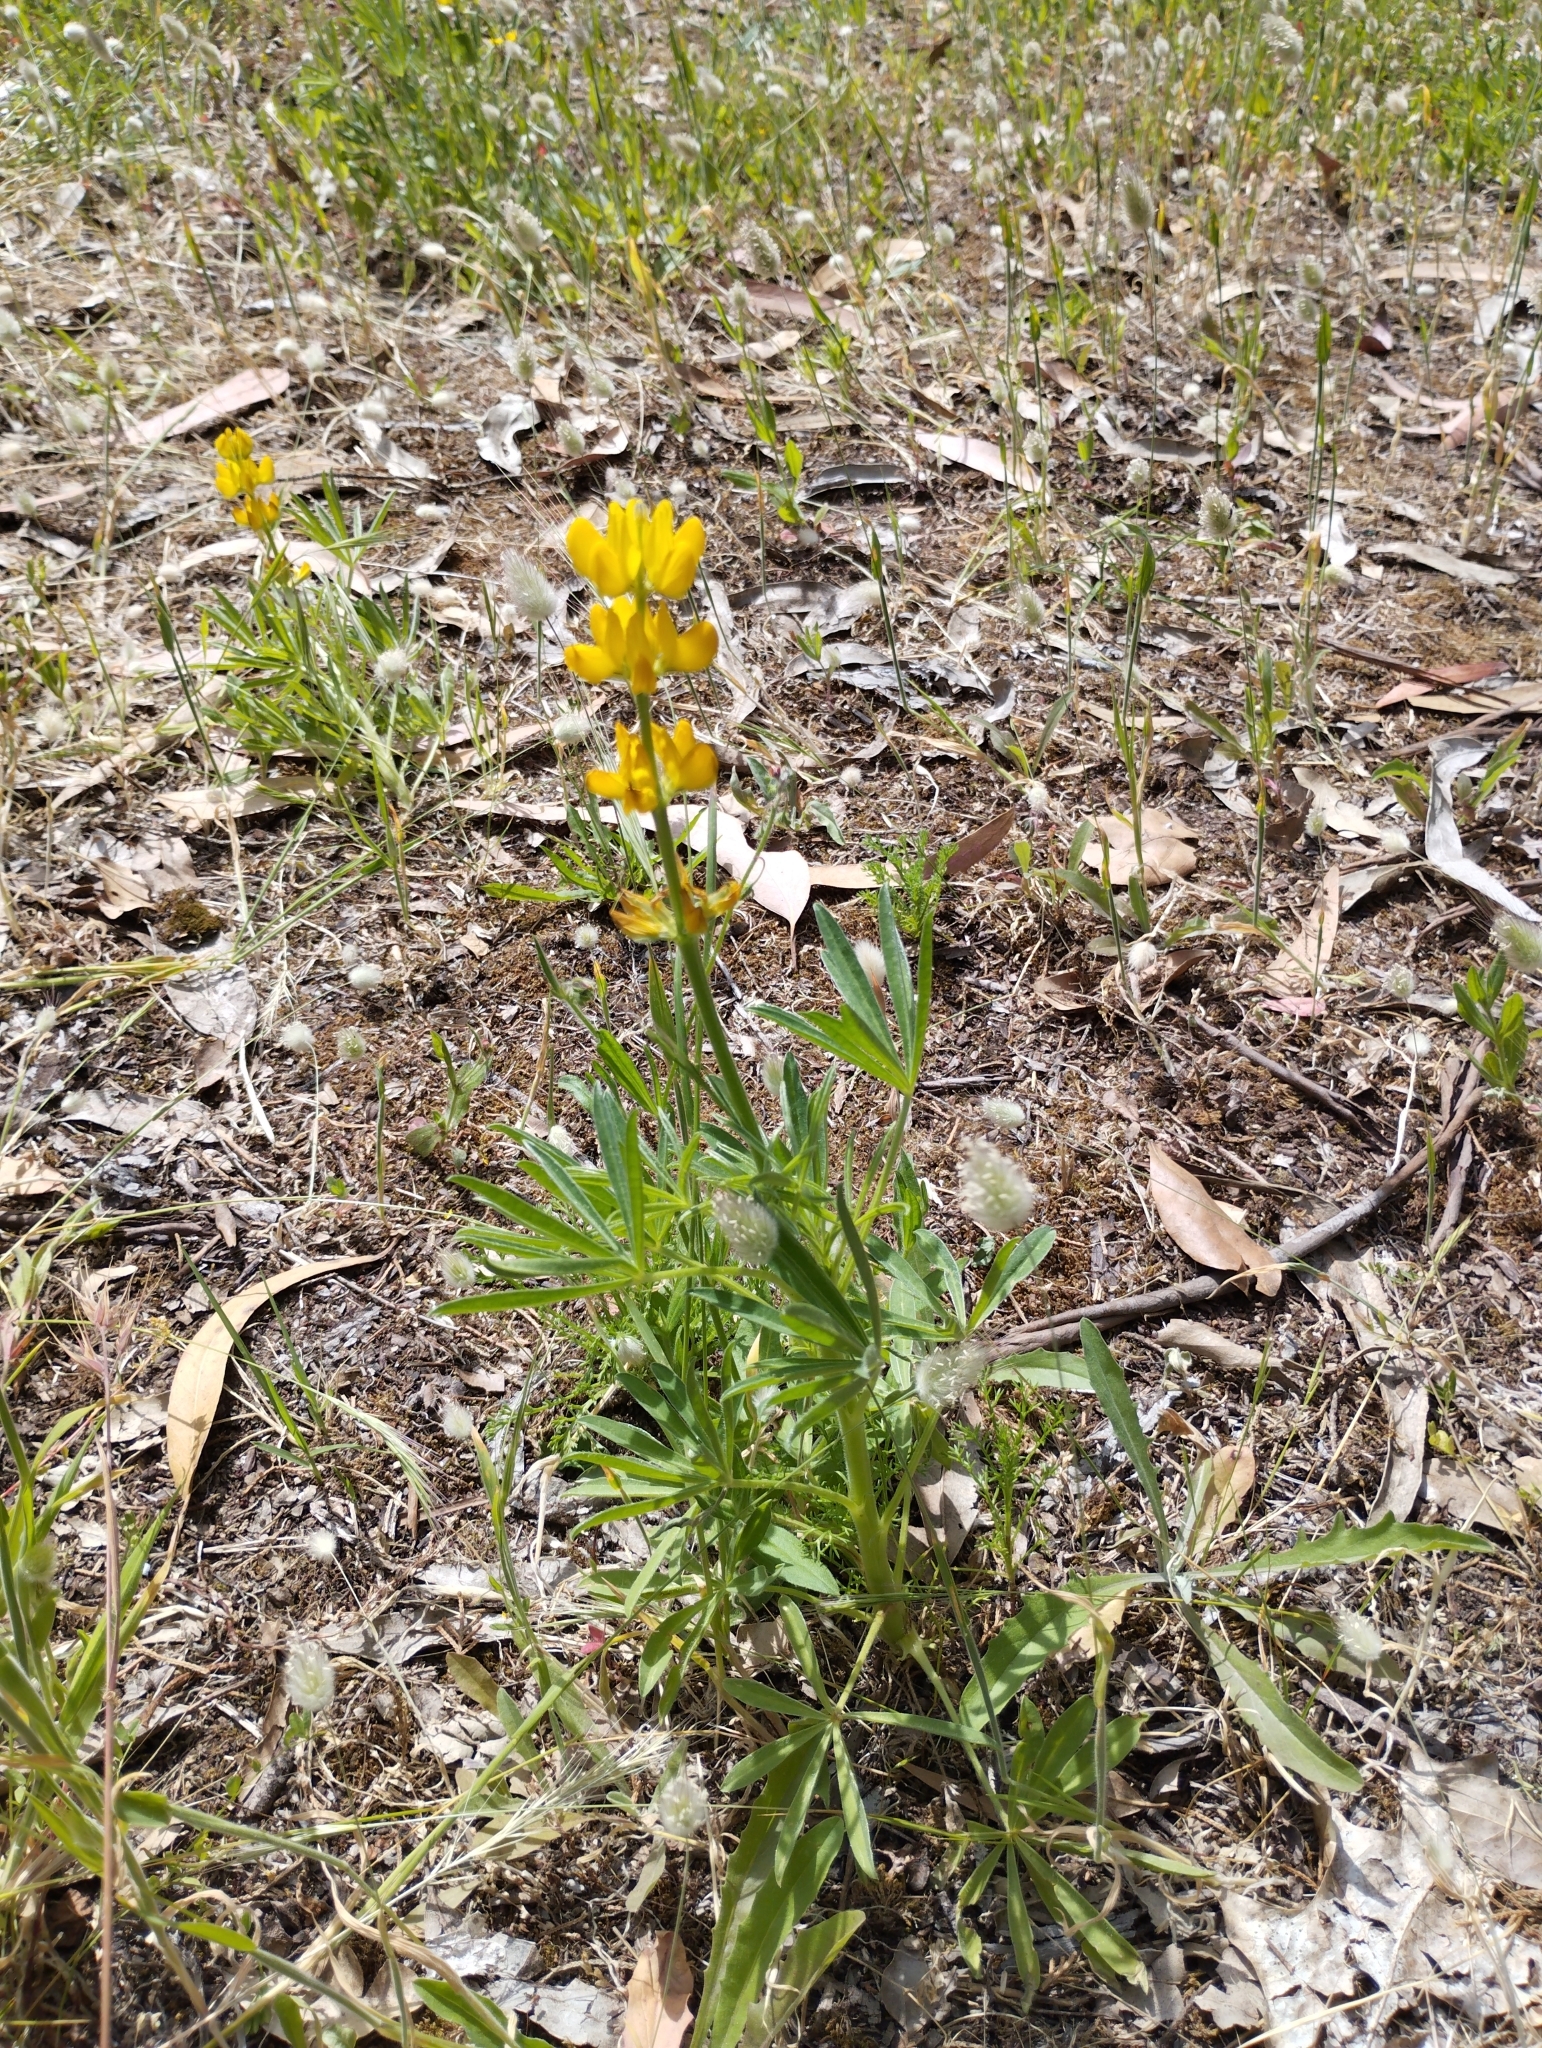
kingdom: Plantae
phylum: Tracheophyta
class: Magnoliopsida
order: Fabales
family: Fabaceae
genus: Lupinus
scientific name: Lupinus luteus
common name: European yellow lupine
